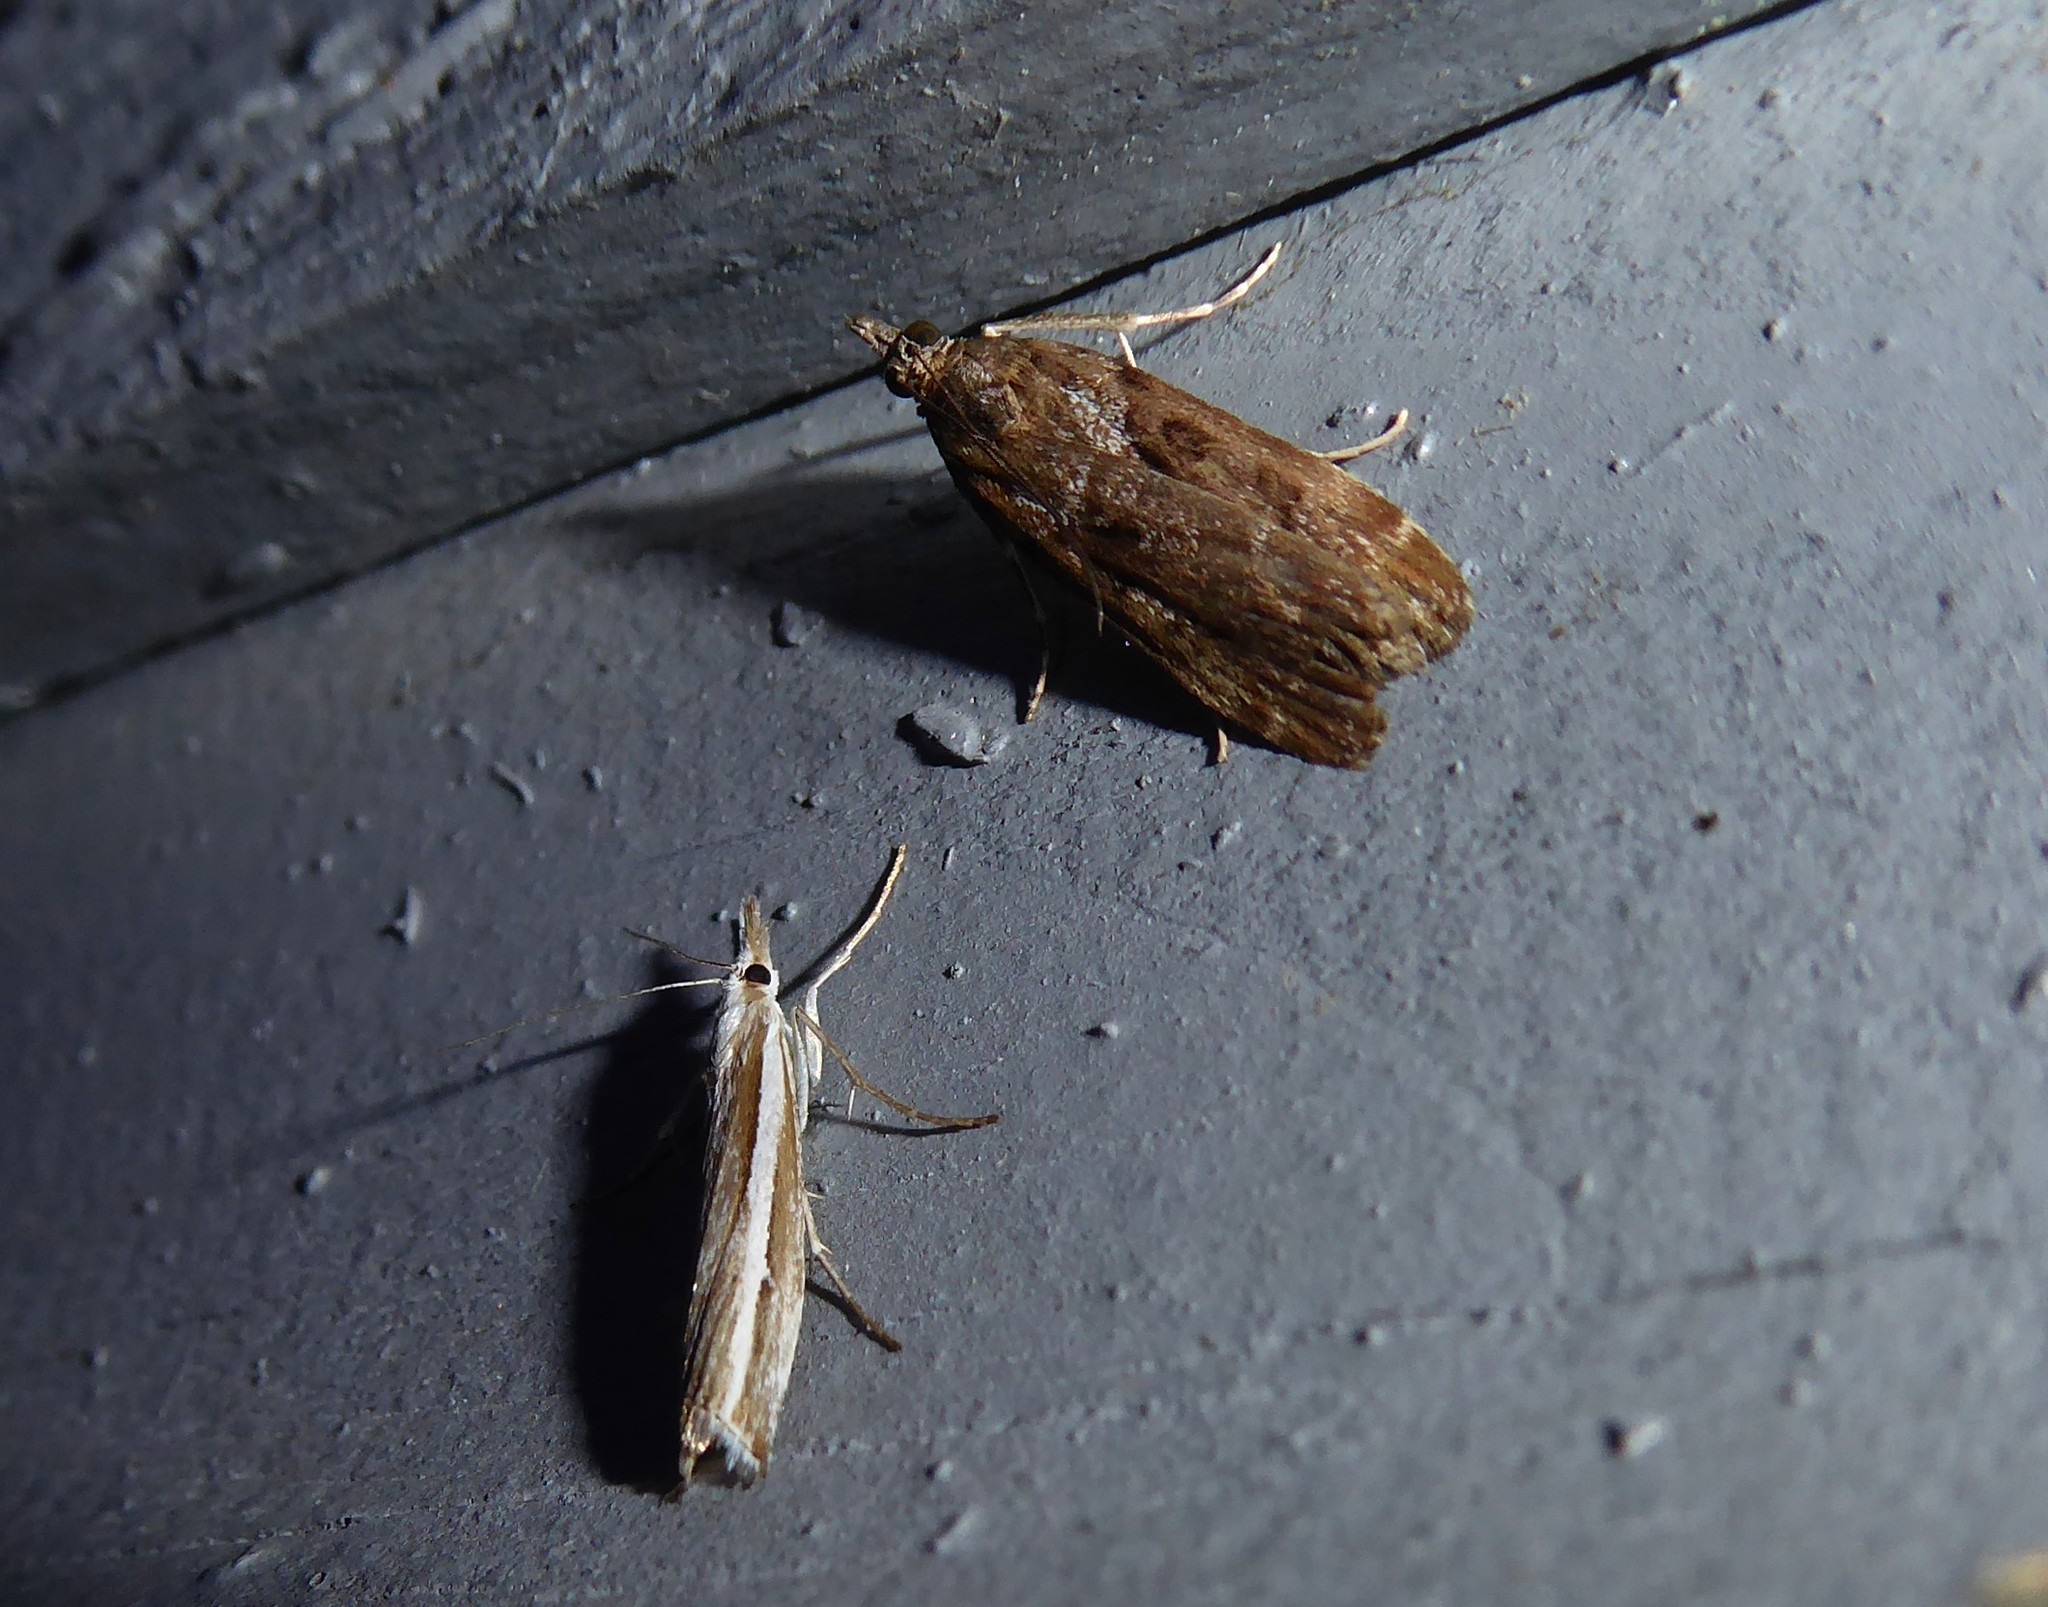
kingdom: Animalia
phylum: Arthropoda
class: Insecta
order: Lepidoptera
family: Crambidae
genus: Orocrambus
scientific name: Orocrambus vittellus
